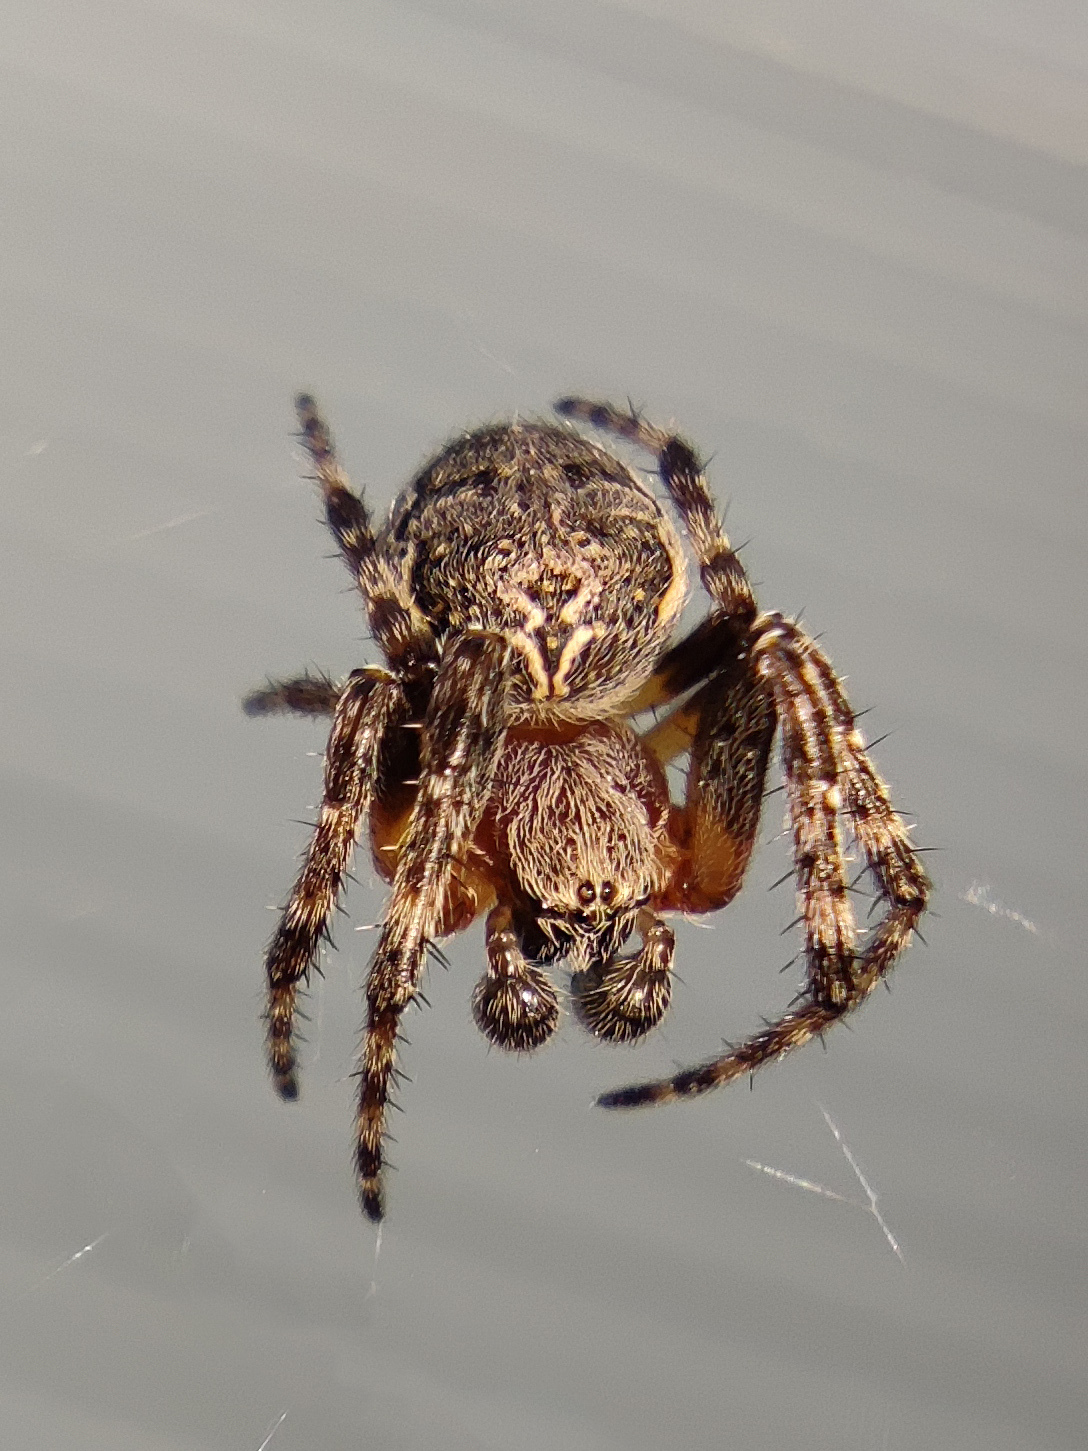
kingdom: Animalia
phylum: Arthropoda
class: Arachnida
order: Araneae
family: Araneidae
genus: Larinioides
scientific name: Larinioides patagiatus
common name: Ornamental orbweaver
